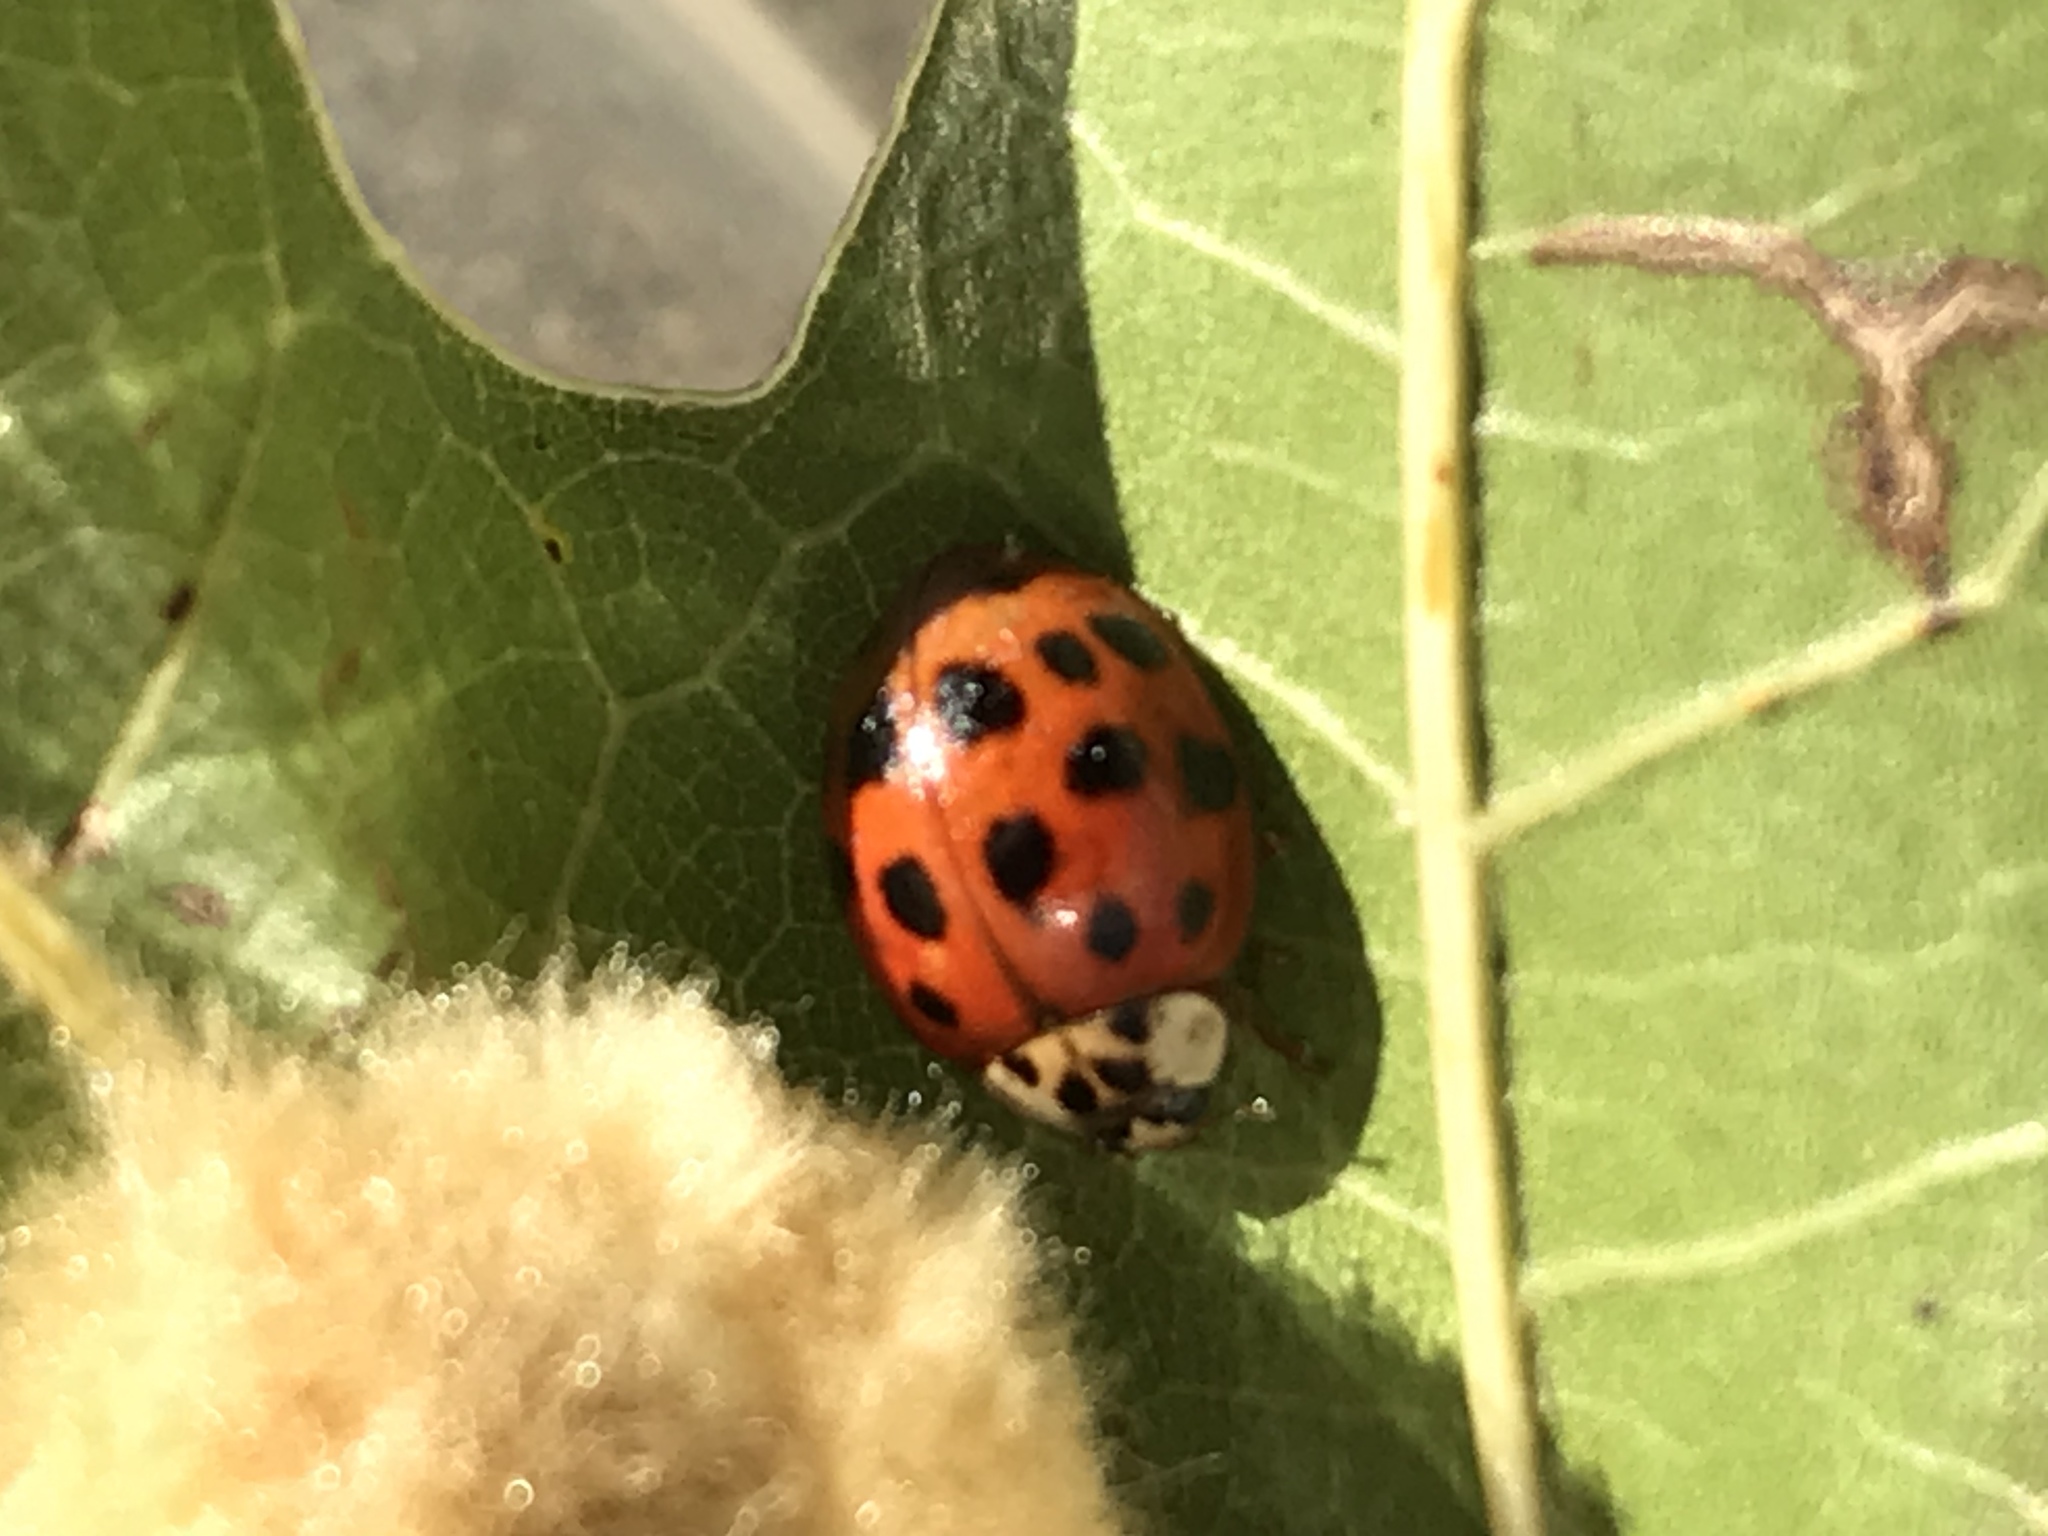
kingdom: Animalia
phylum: Arthropoda
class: Insecta
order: Coleoptera
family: Coccinellidae
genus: Harmonia
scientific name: Harmonia axyridis
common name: Harlequin ladybird
